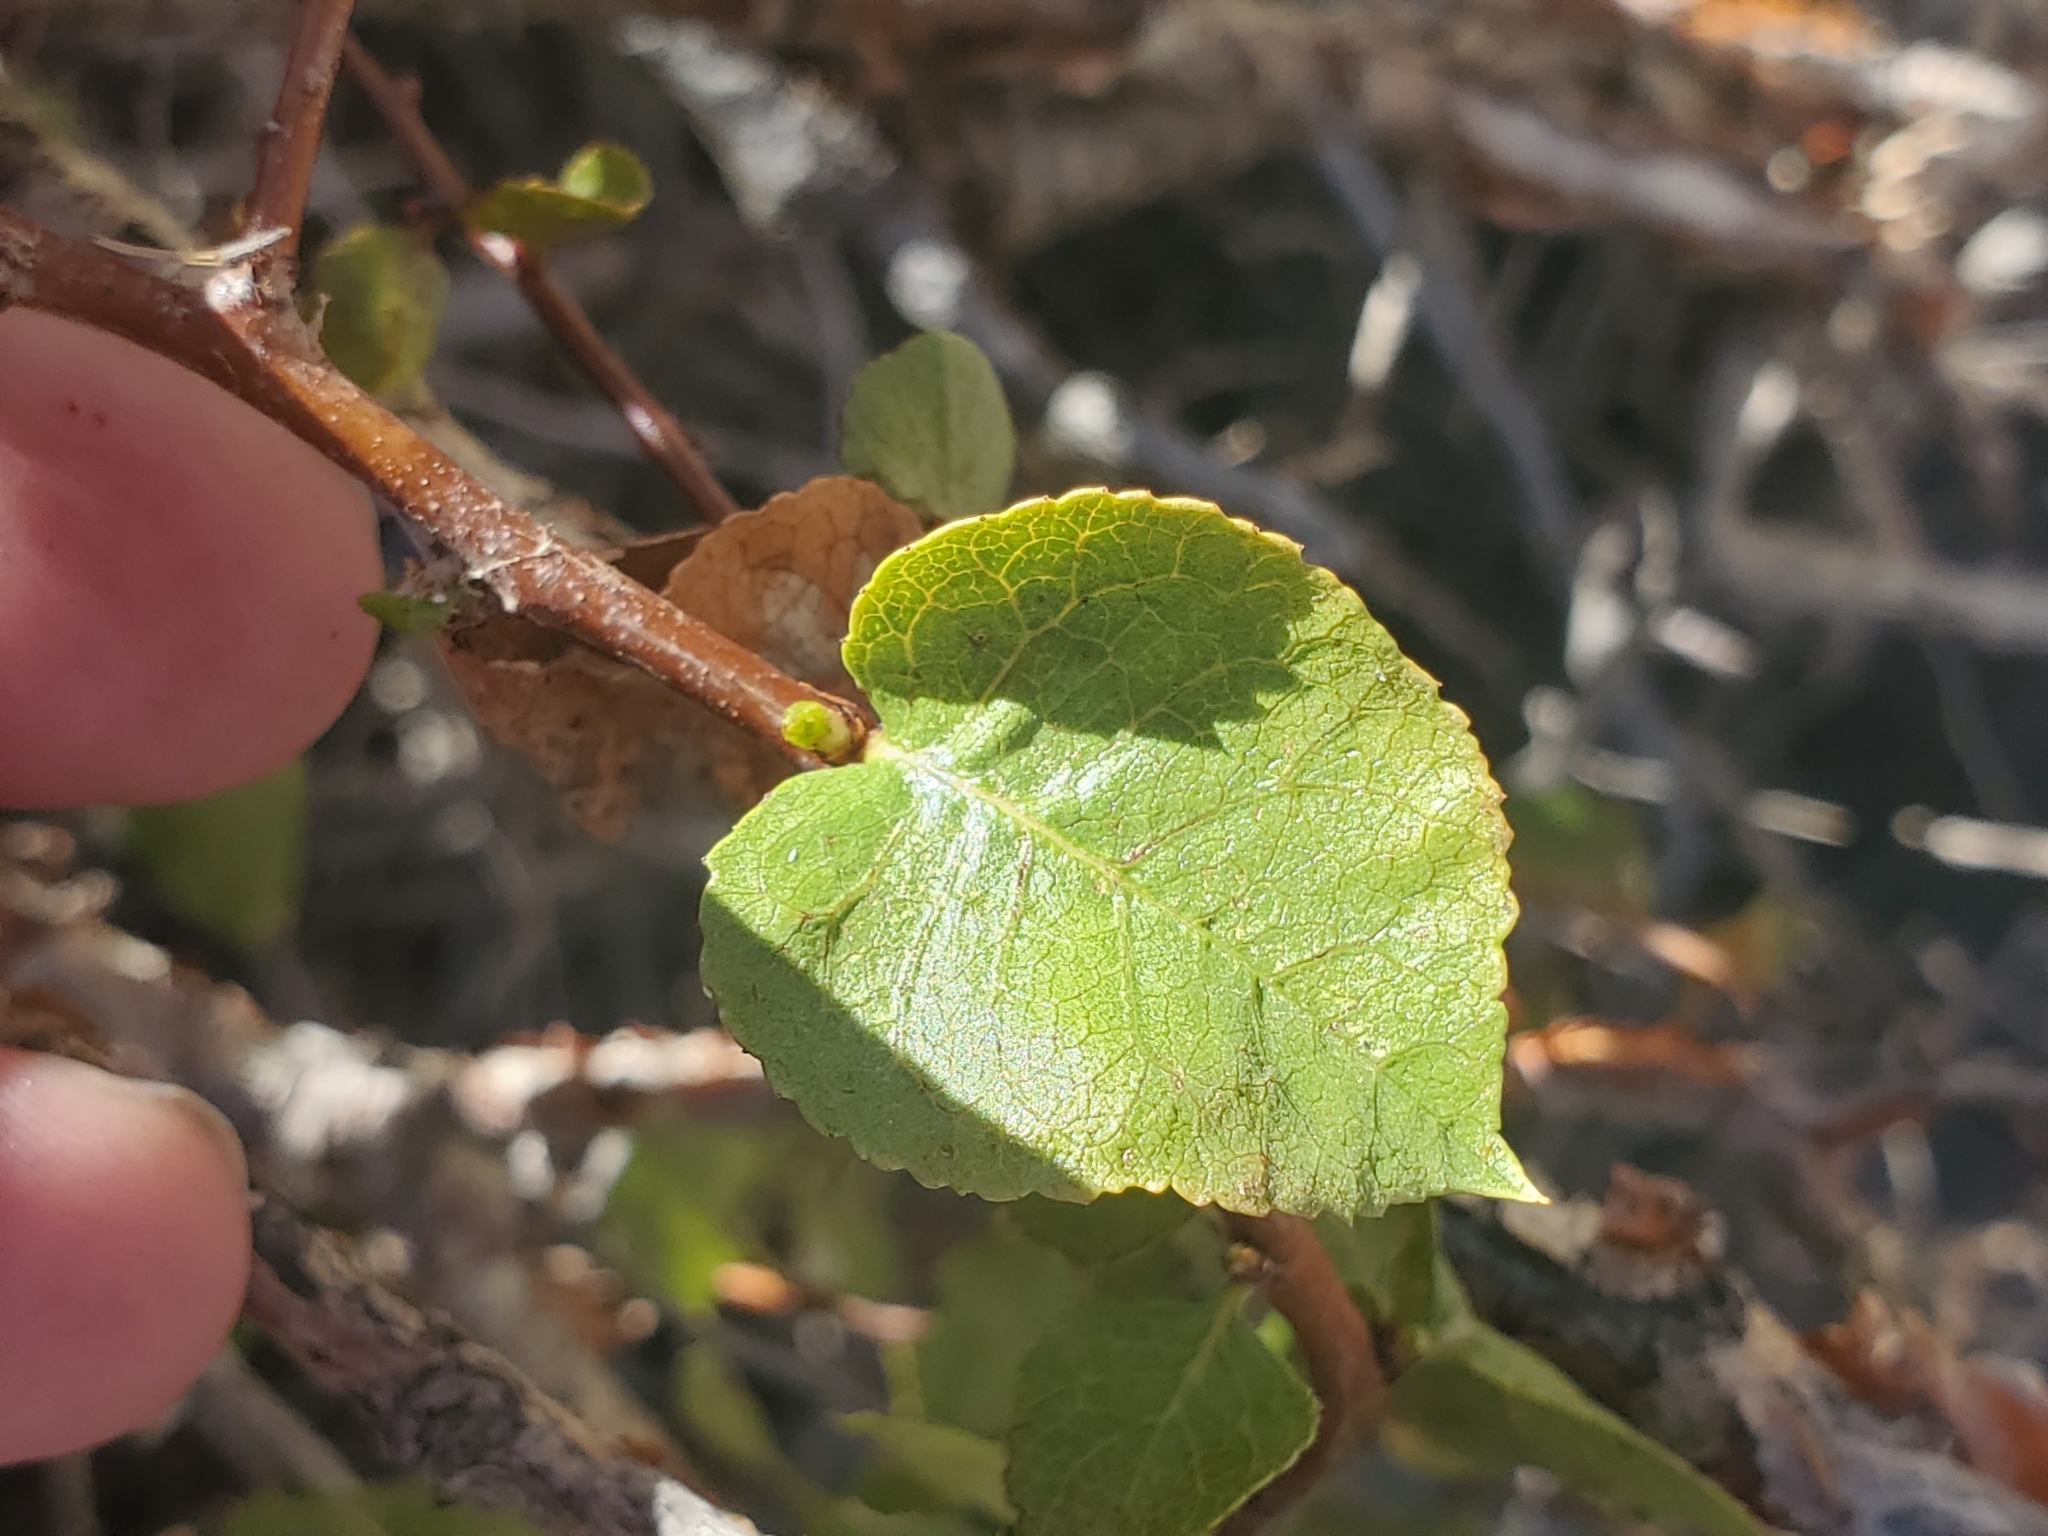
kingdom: Plantae
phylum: Tracheophyta
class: Magnoliopsida
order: Rosales
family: Rosaceae
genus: Prunus
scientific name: Prunus fremontii
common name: Desert apricot
